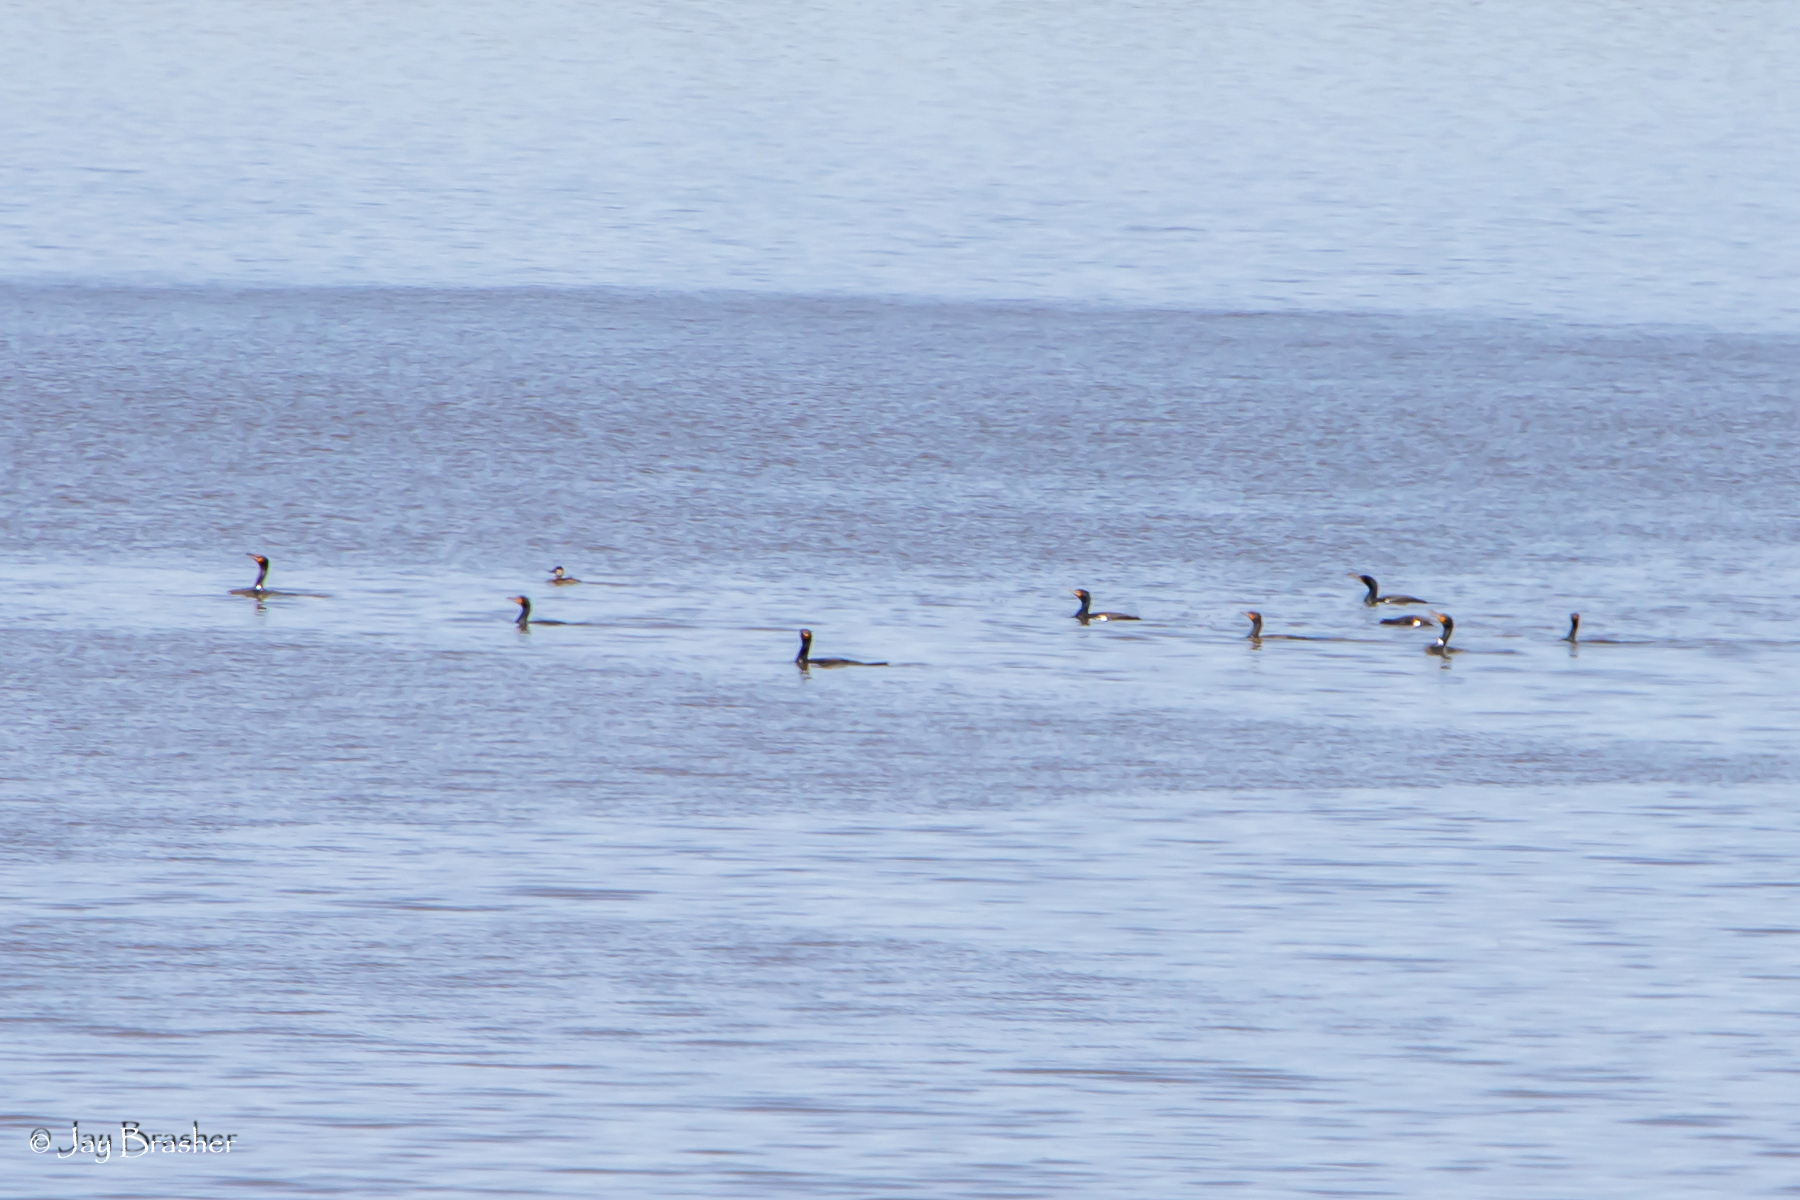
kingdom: Animalia
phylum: Chordata
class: Aves
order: Suliformes
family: Phalacrocoracidae
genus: Phalacrocorax
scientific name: Phalacrocorax auritus
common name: Double-crested cormorant
